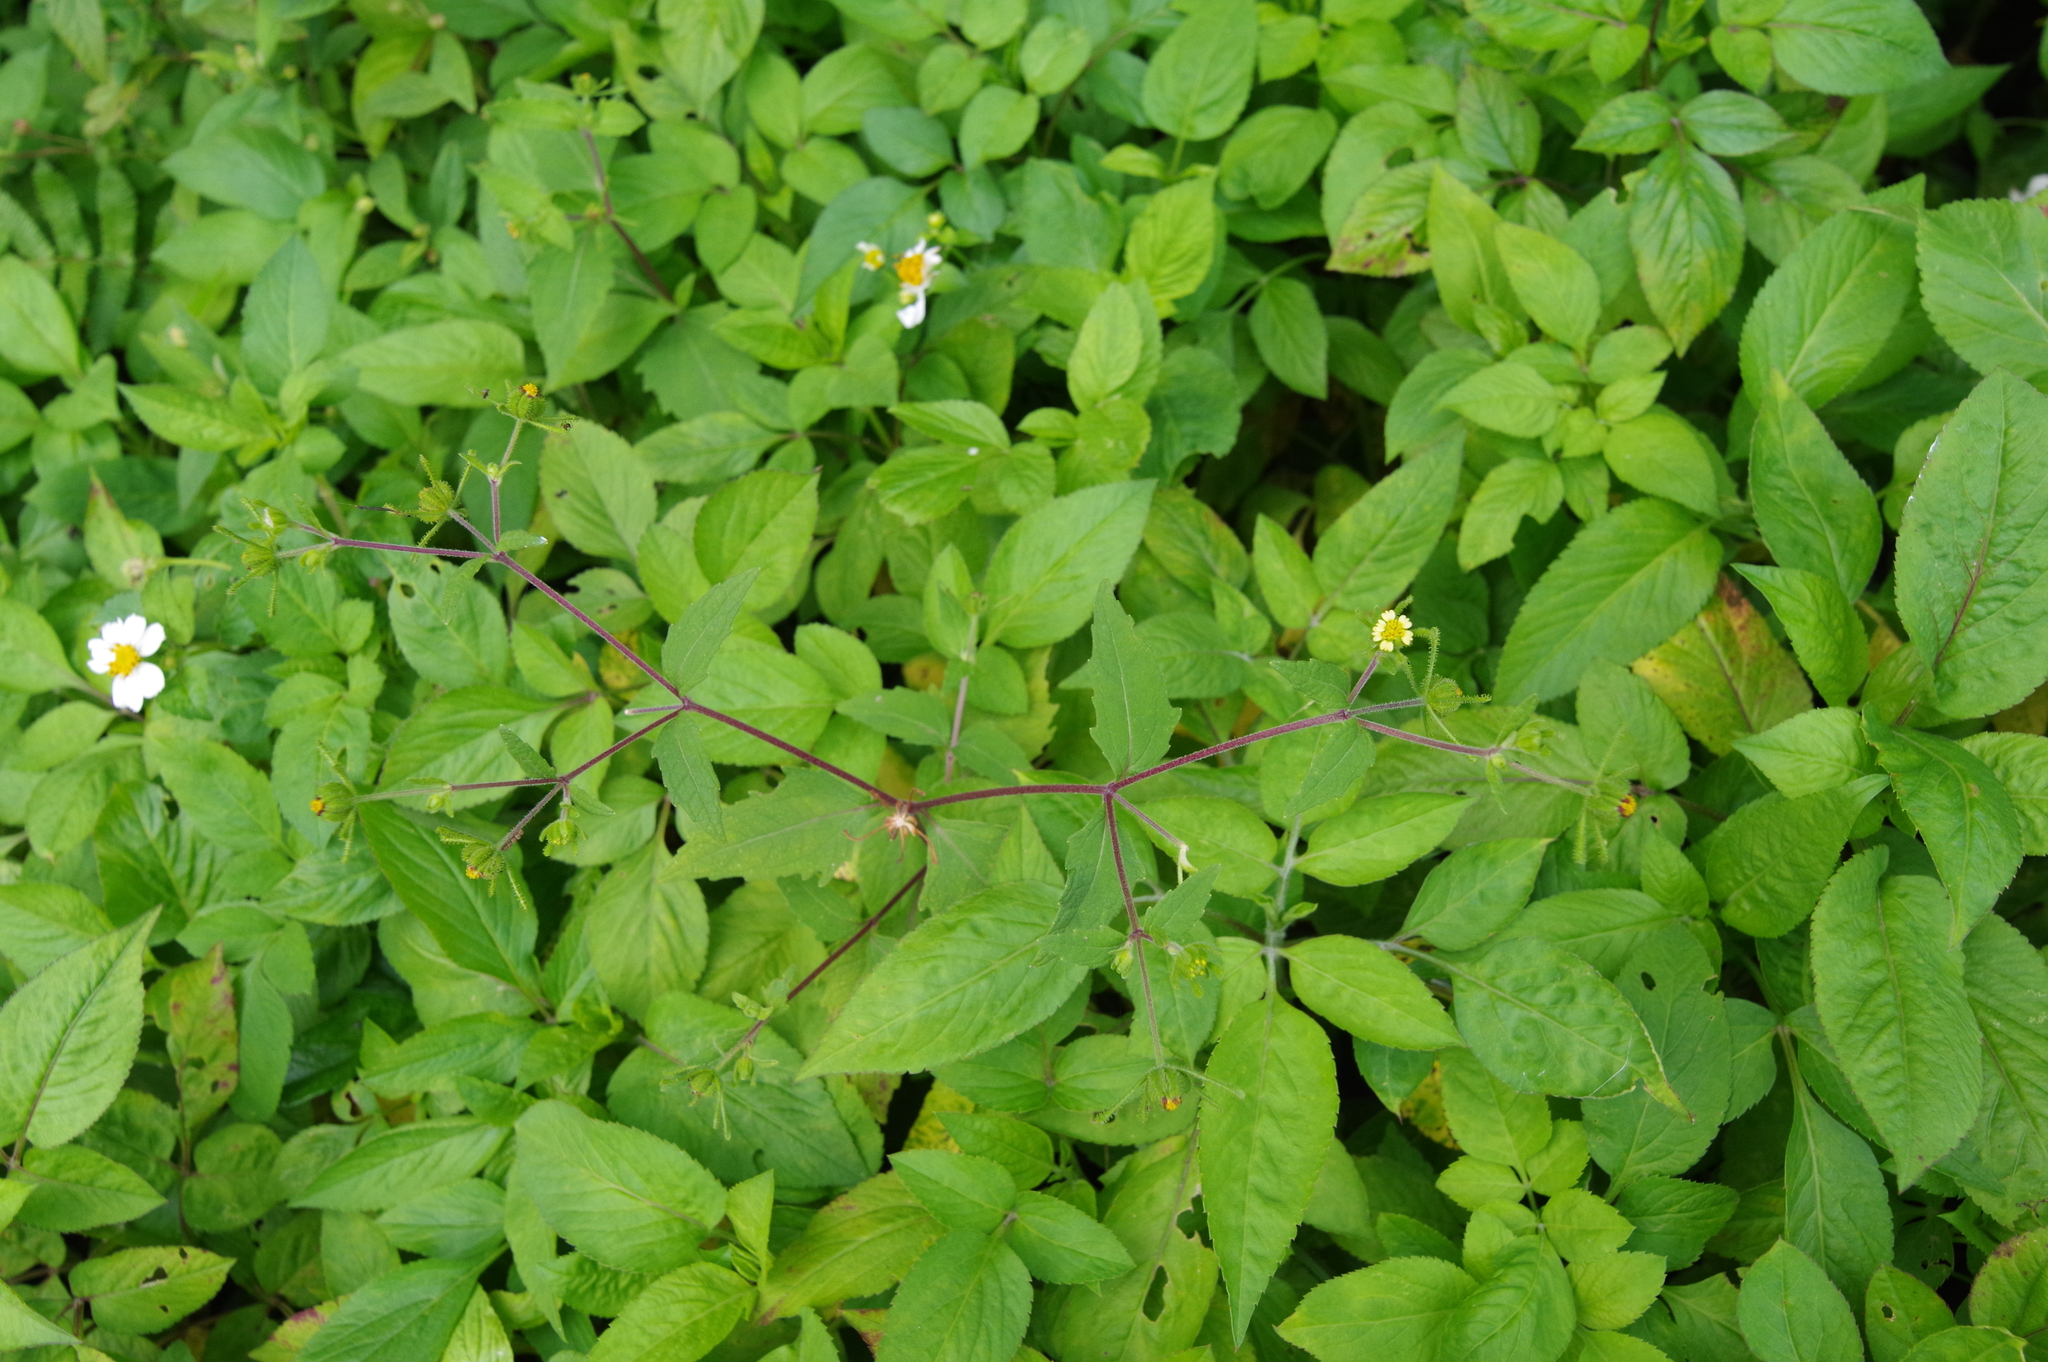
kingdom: Plantae
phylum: Tracheophyta
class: Magnoliopsida
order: Asterales
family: Asteraceae
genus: Sigesbeckia
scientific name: Sigesbeckia orientalis
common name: Eastern st paul's-wort
